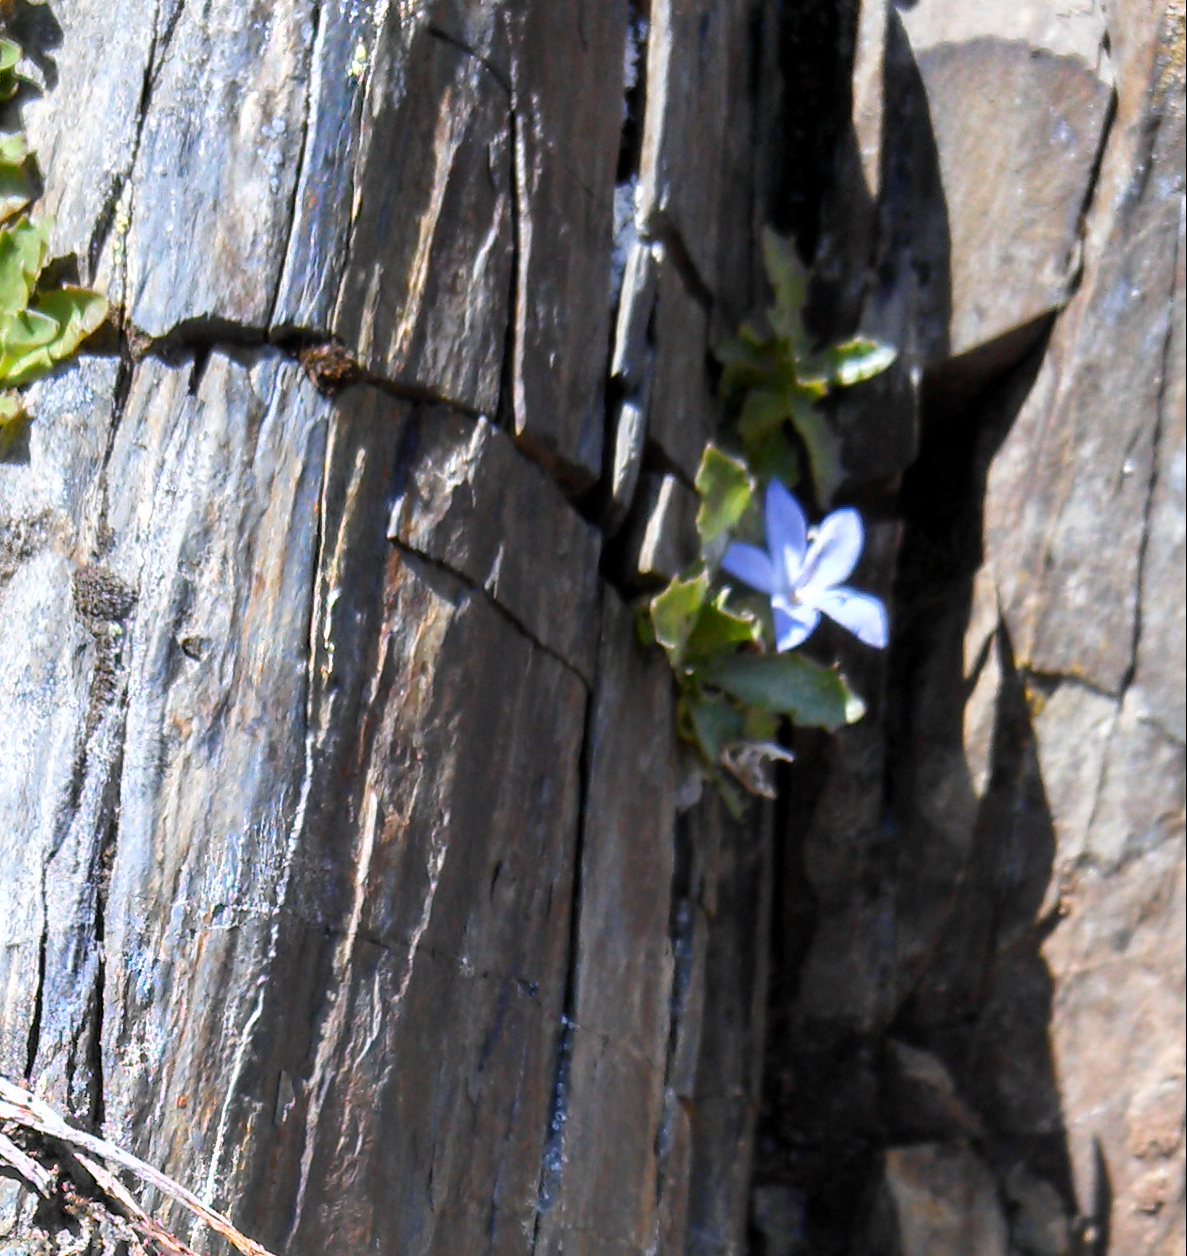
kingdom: Plantae
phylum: Tracheophyta
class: Magnoliopsida
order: Asterales
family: Campanulaceae
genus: Campanula
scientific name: Campanula piperi
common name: Olympic bellflower
